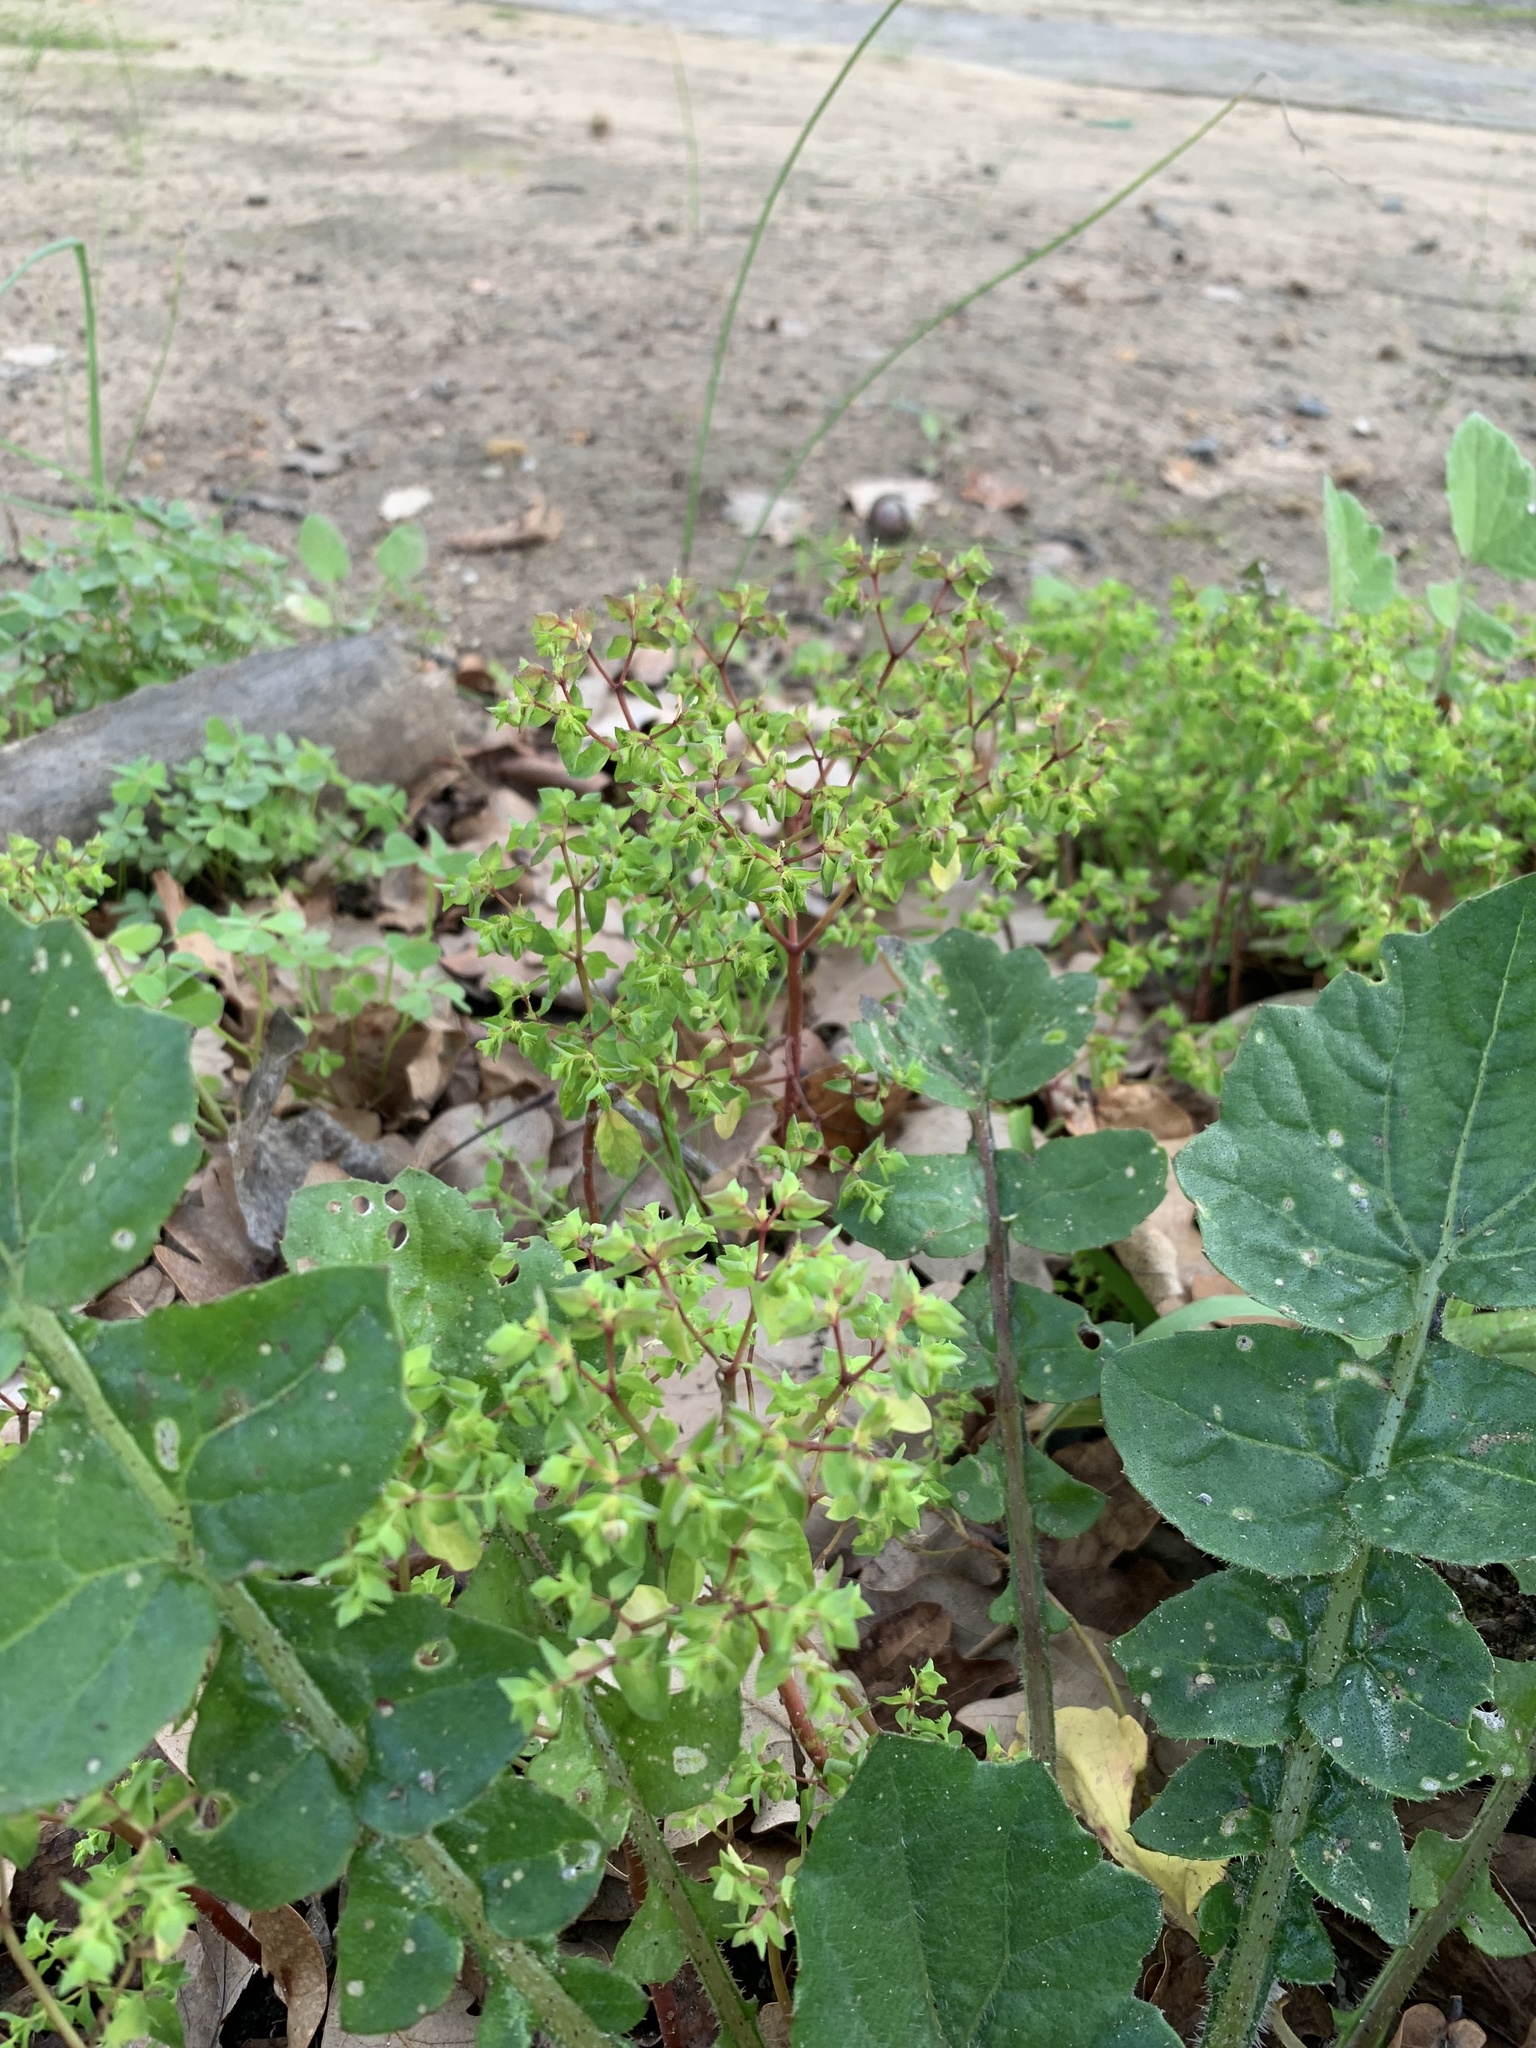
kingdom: Plantae
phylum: Tracheophyta
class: Magnoliopsida
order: Malpighiales
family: Euphorbiaceae
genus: Euphorbia
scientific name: Euphorbia peplus
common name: Petty spurge
